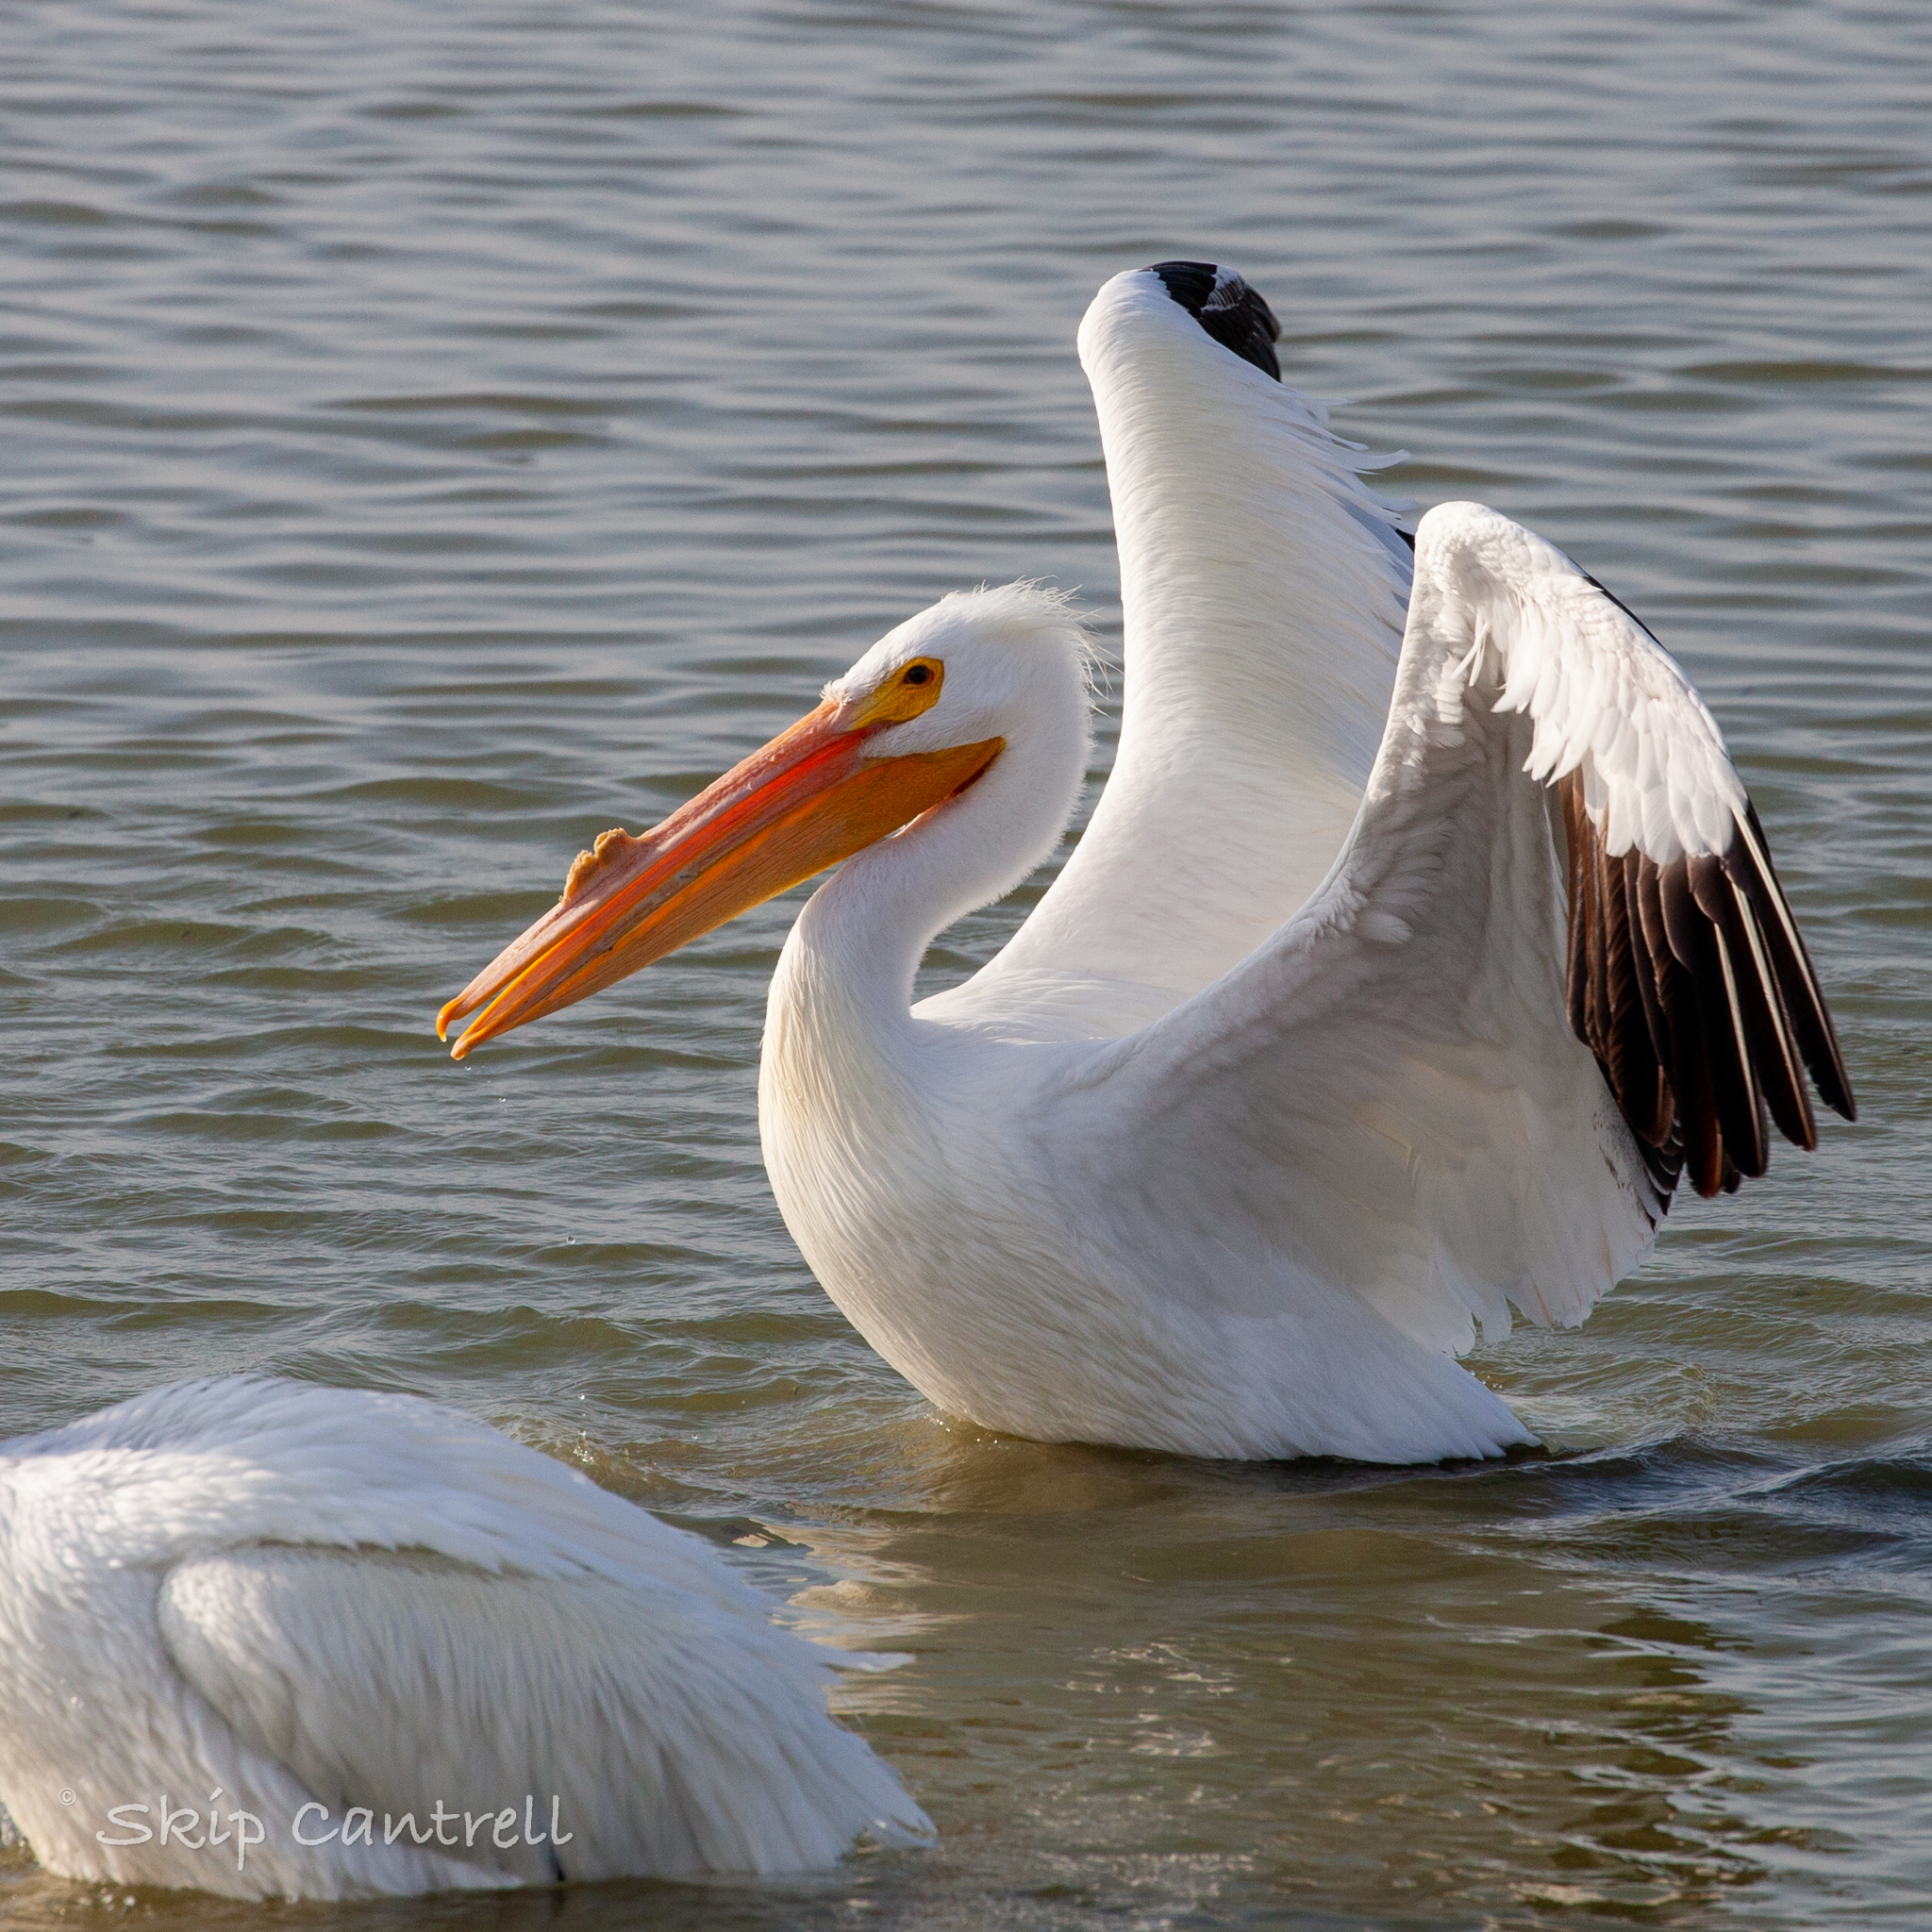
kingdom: Animalia
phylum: Chordata
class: Aves
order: Pelecaniformes
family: Pelecanidae
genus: Pelecanus
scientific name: Pelecanus erythrorhynchos
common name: American white pelican
